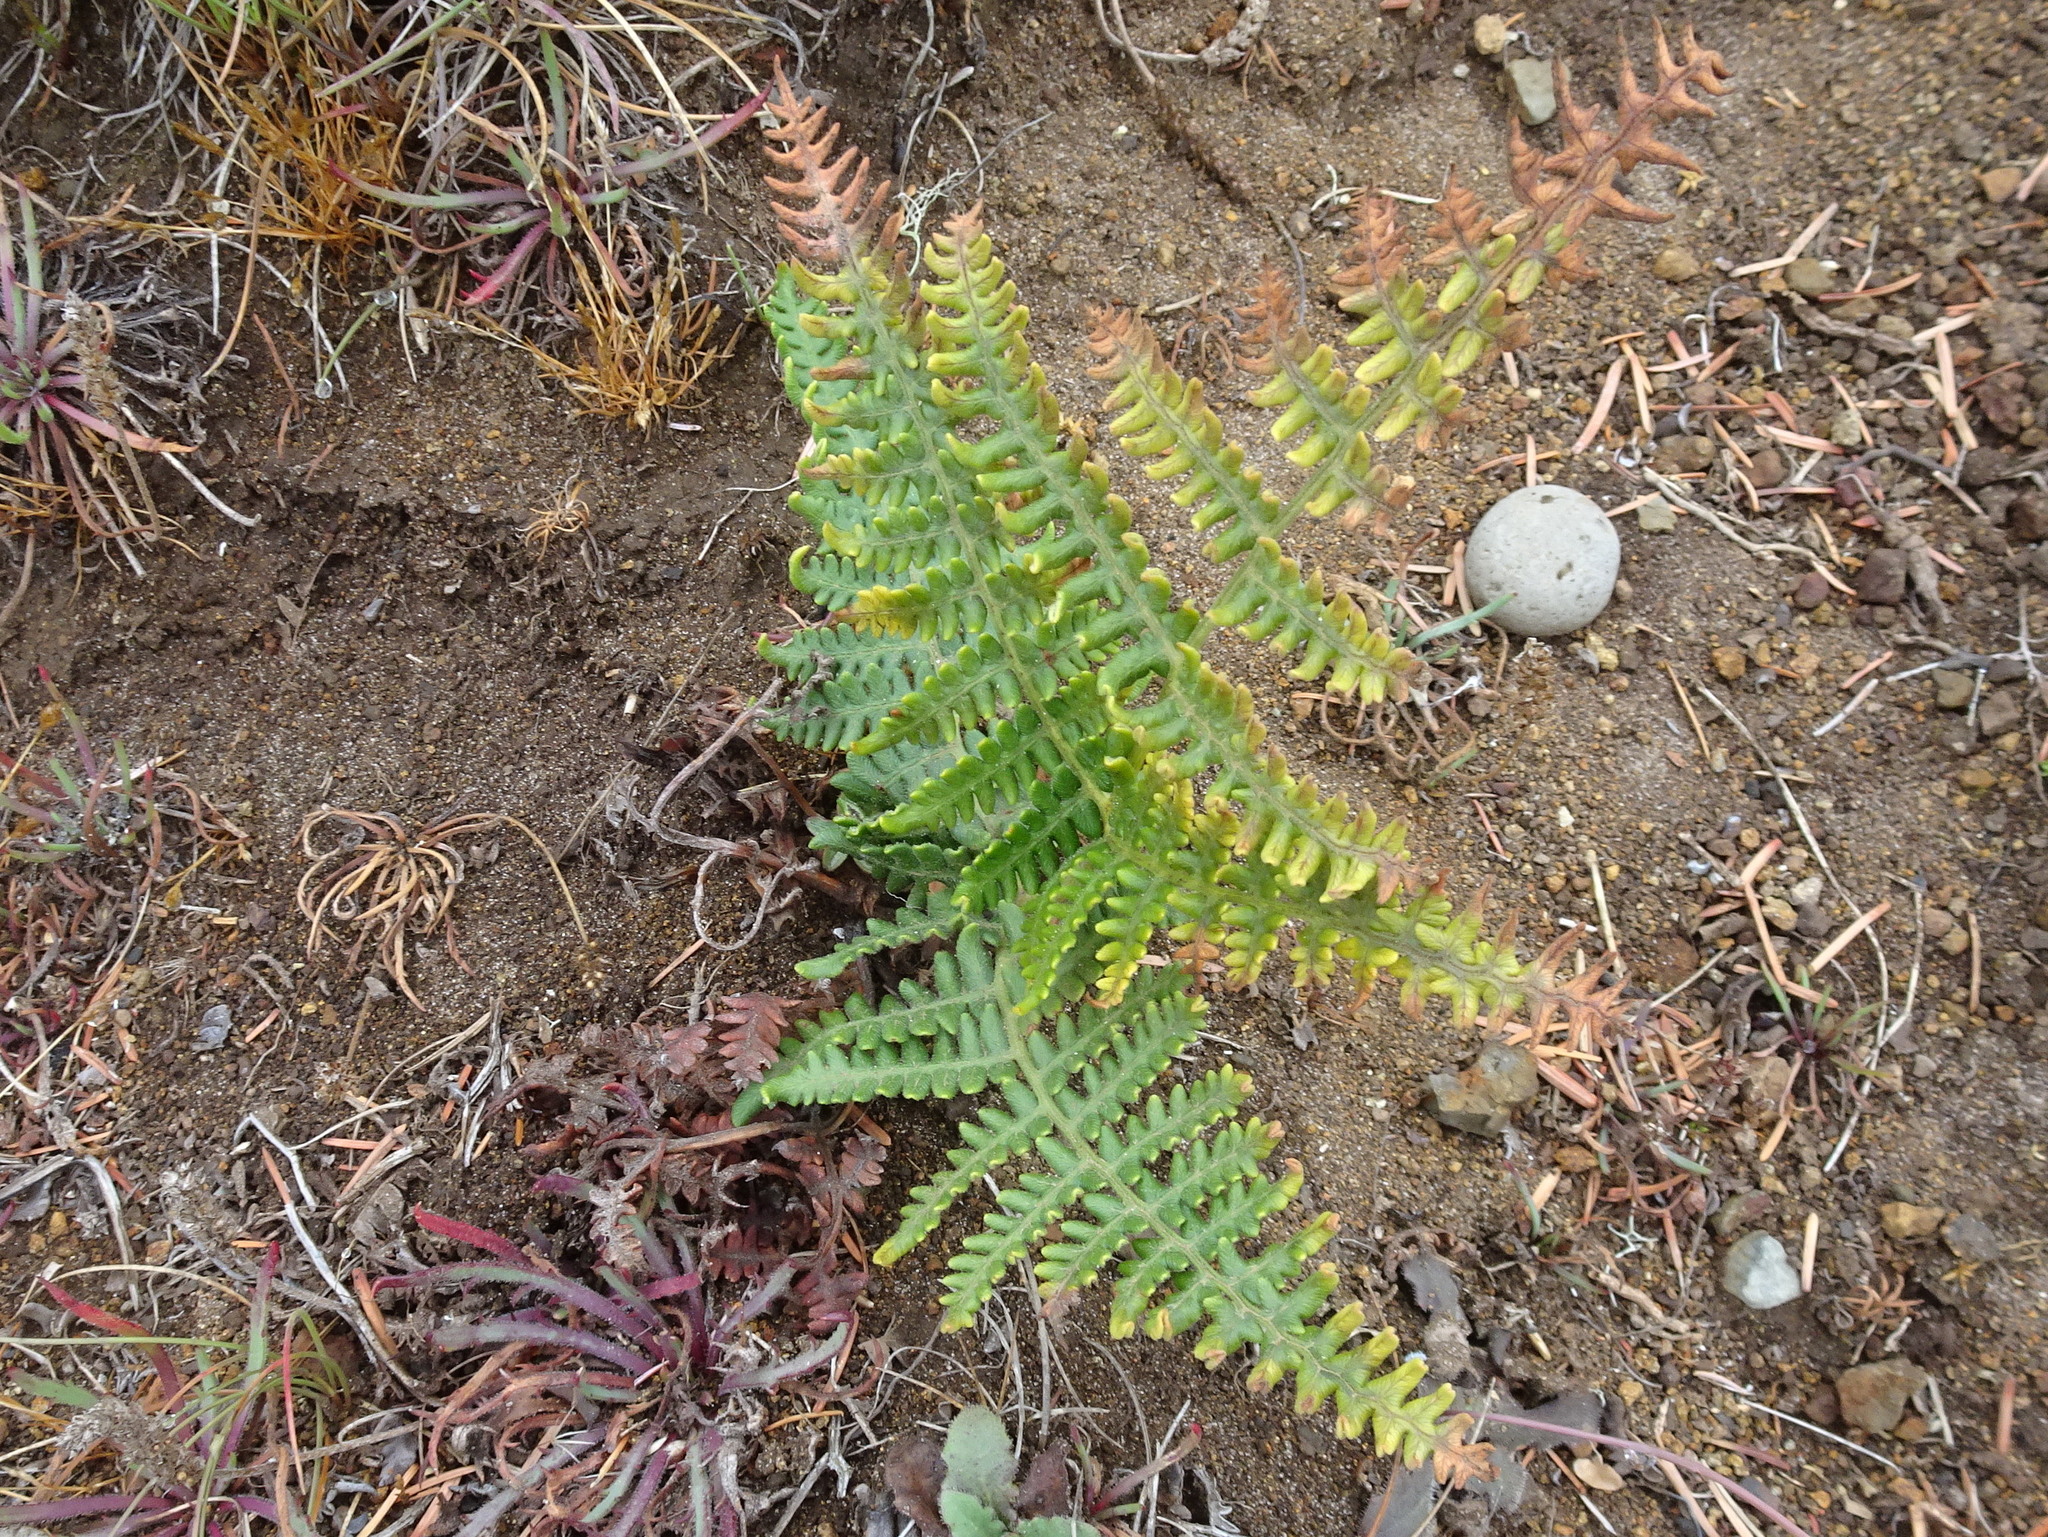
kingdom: Plantae
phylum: Tracheophyta
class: Polypodiopsida
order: Polypodiales
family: Dennstaedtiaceae
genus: Pteridium
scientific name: Pteridium aquilinum
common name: Bracken
